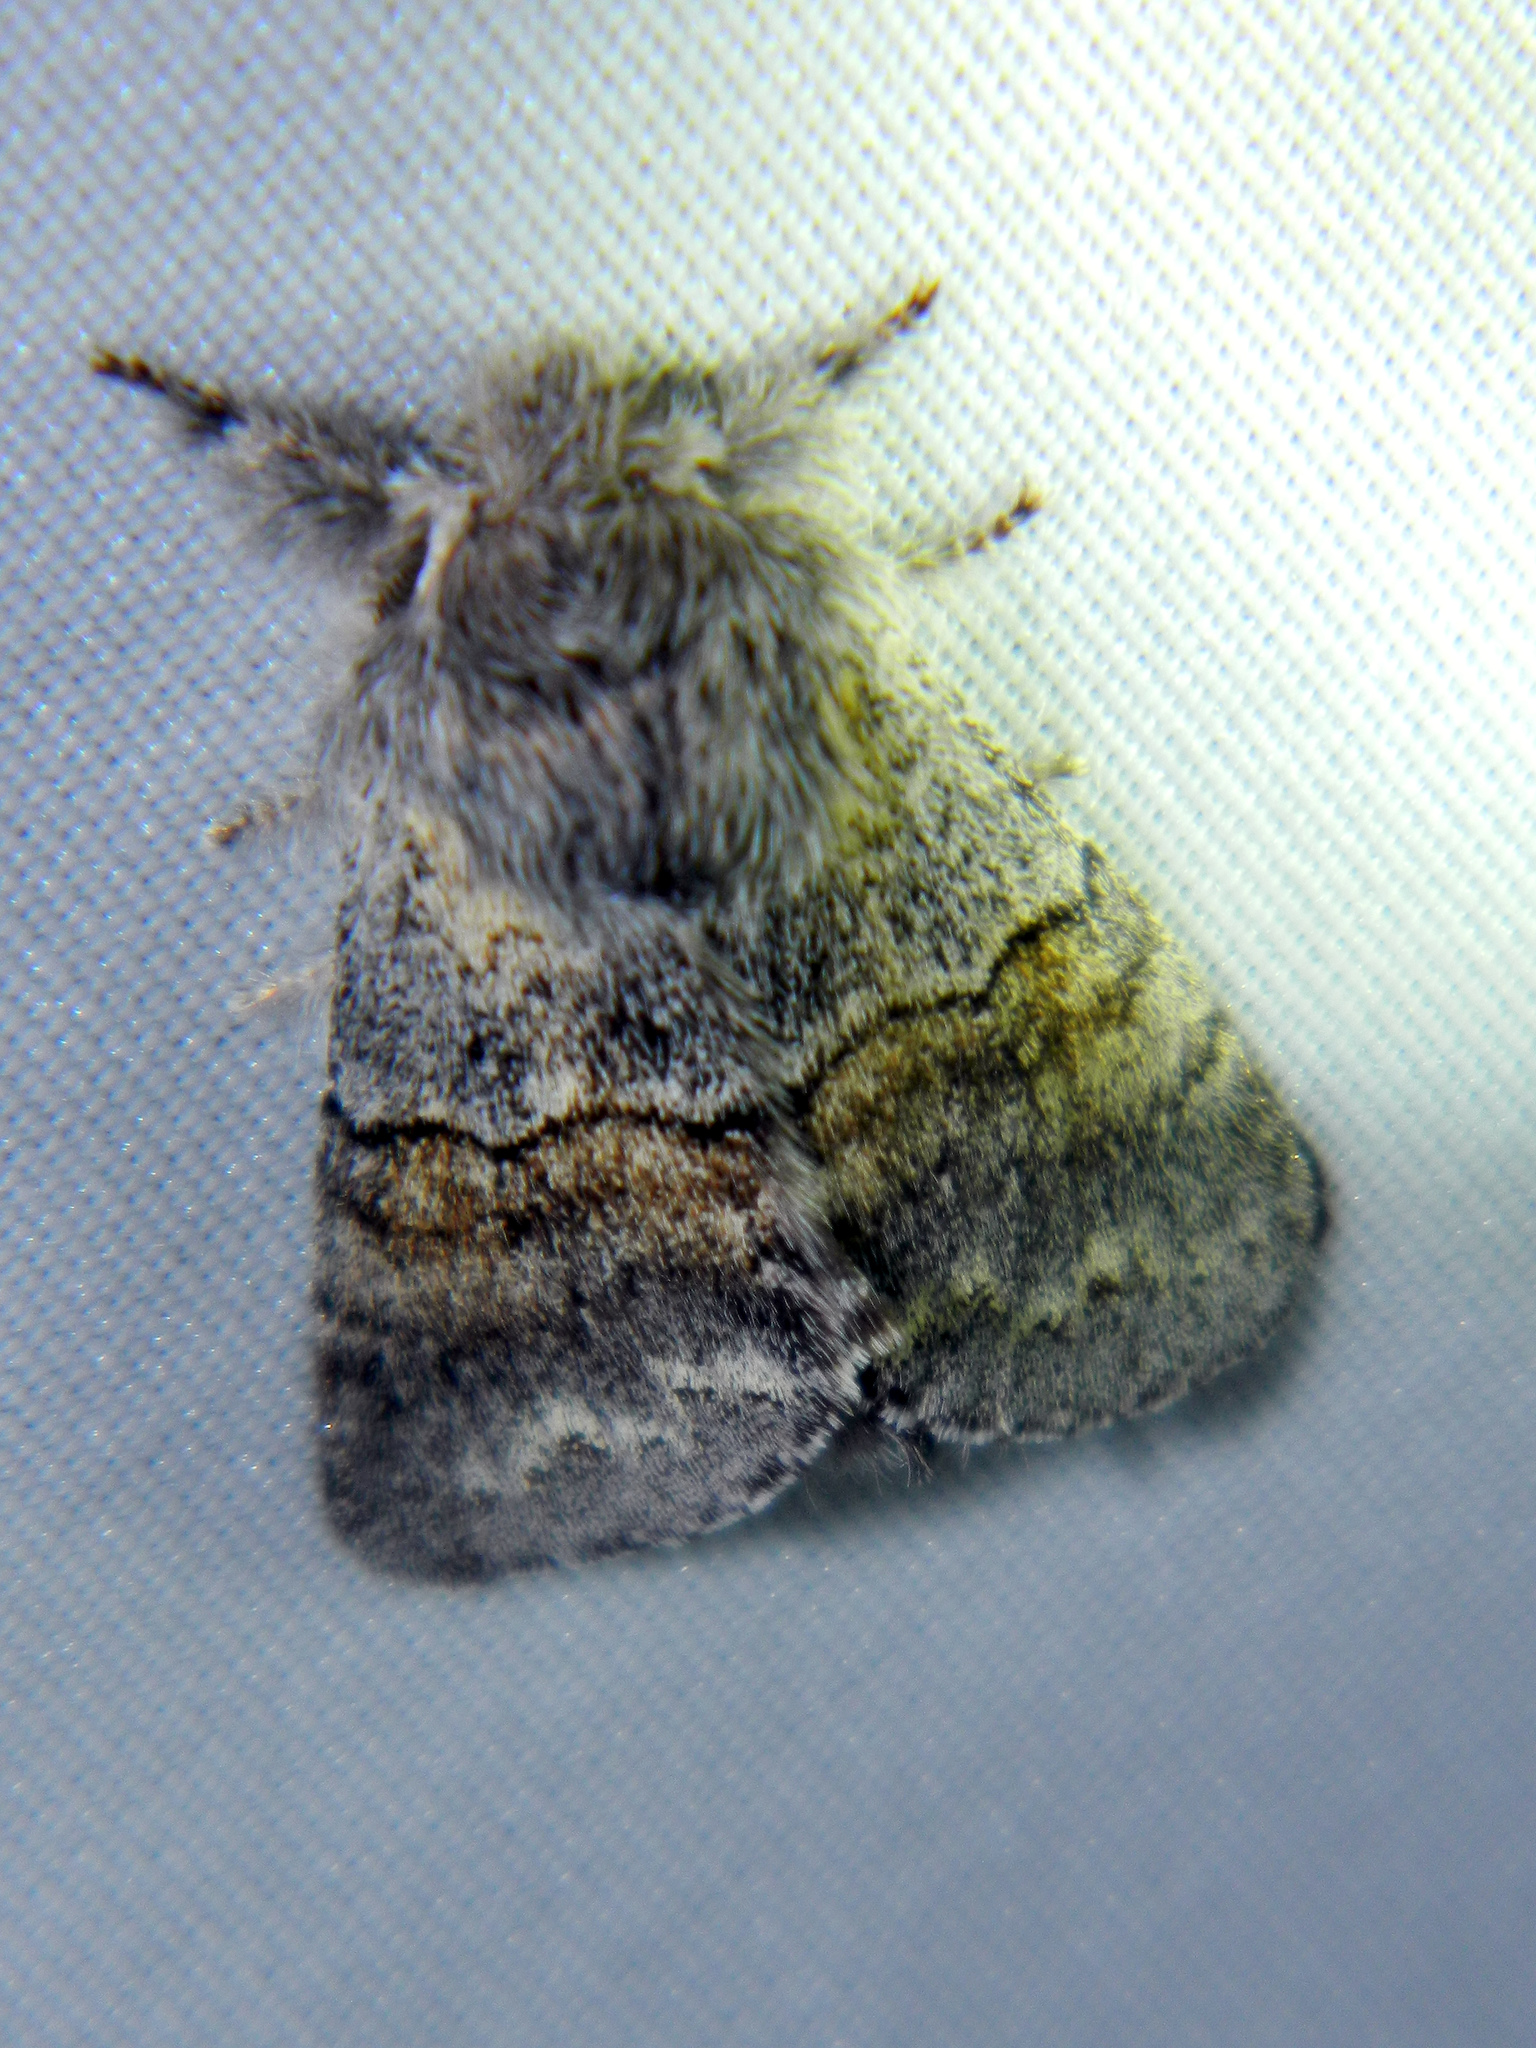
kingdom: Animalia
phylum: Arthropoda
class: Insecta
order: Lepidoptera
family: Notodontidae
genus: Gluphisia
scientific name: Gluphisia lintneri
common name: Lintner's gluphisia moth
